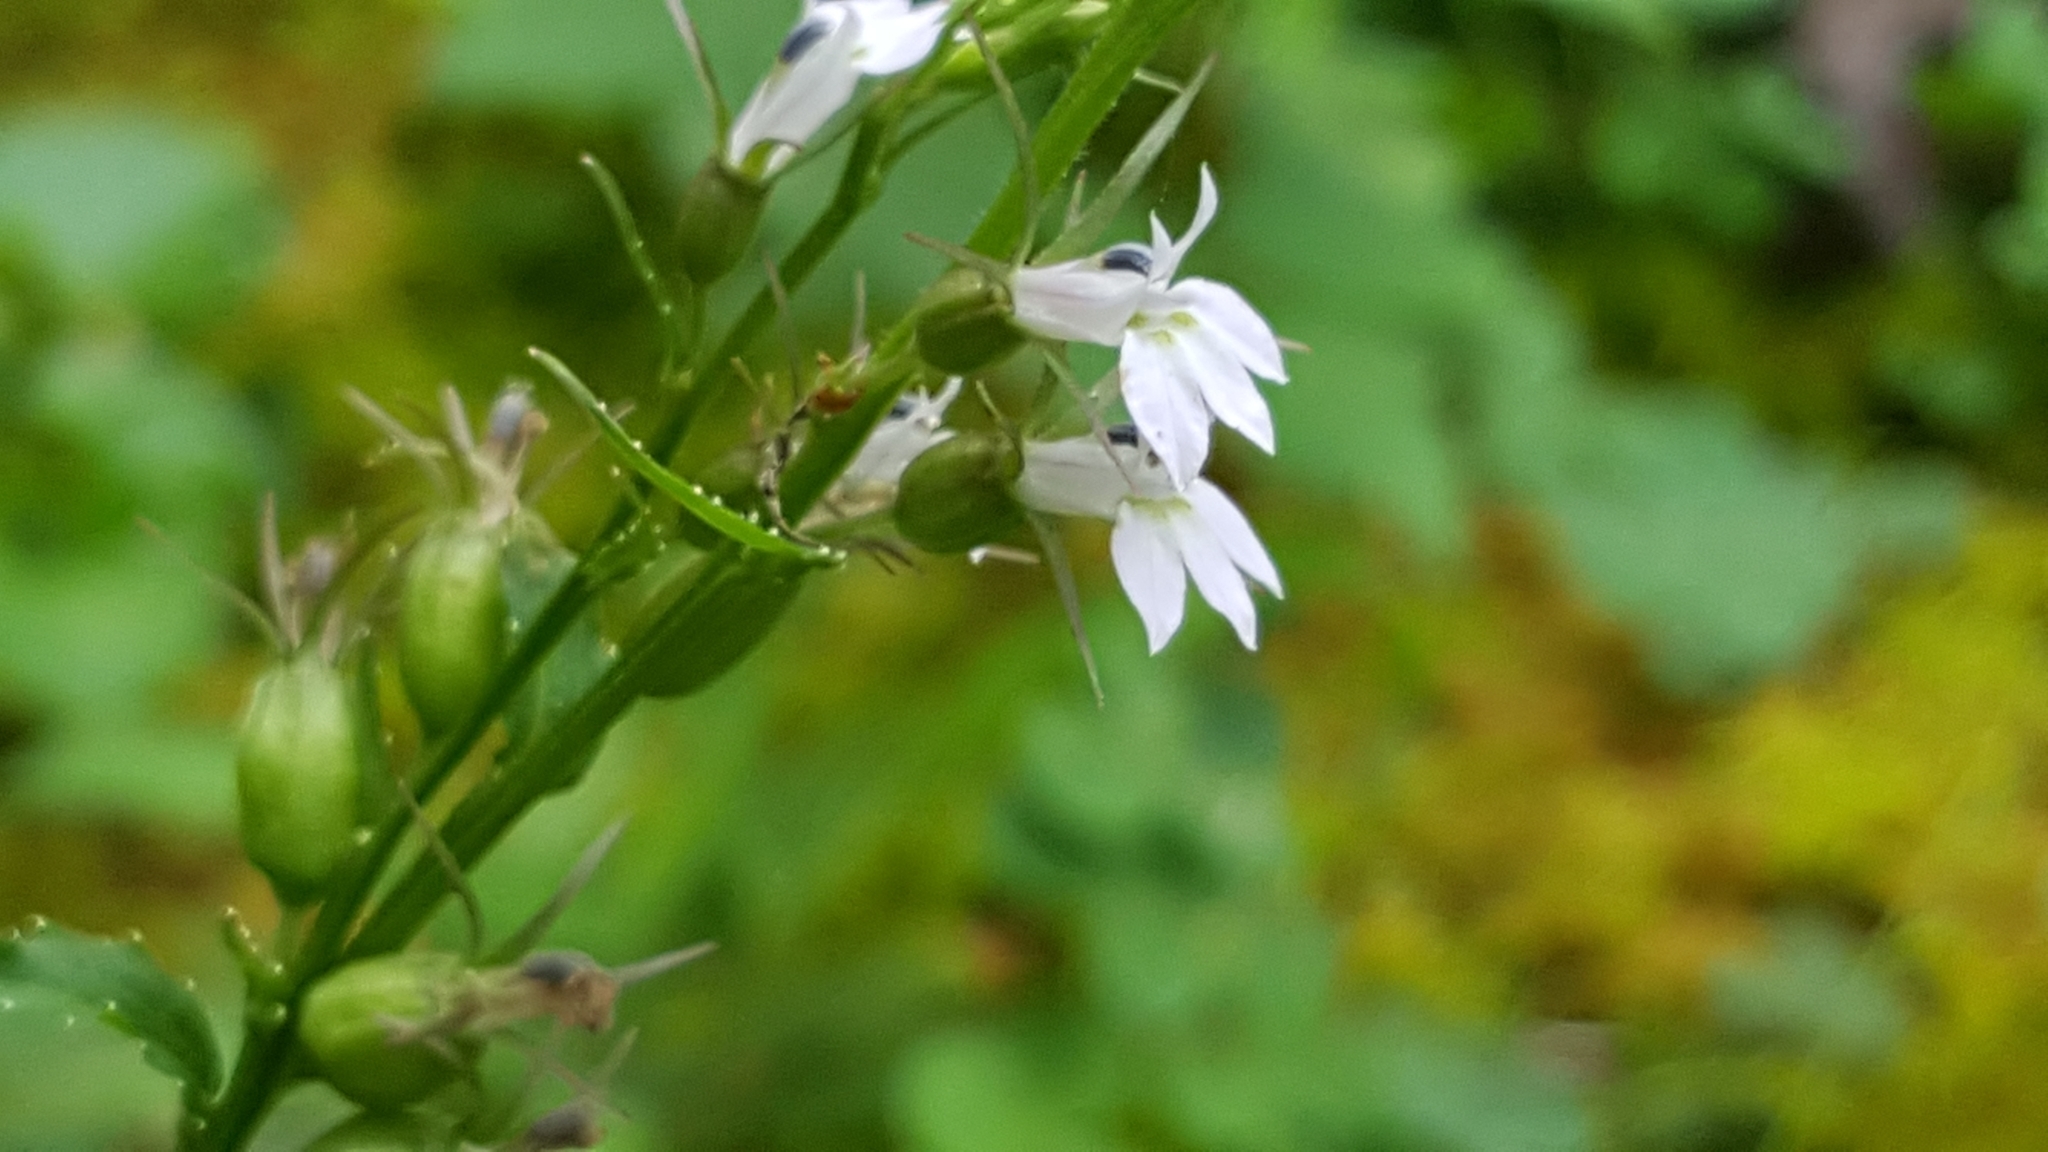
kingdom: Plantae
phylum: Tracheophyta
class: Magnoliopsida
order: Asterales
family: Campanulaceae
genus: Lobelia
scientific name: Lobelia inflata
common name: Indian tobacco
